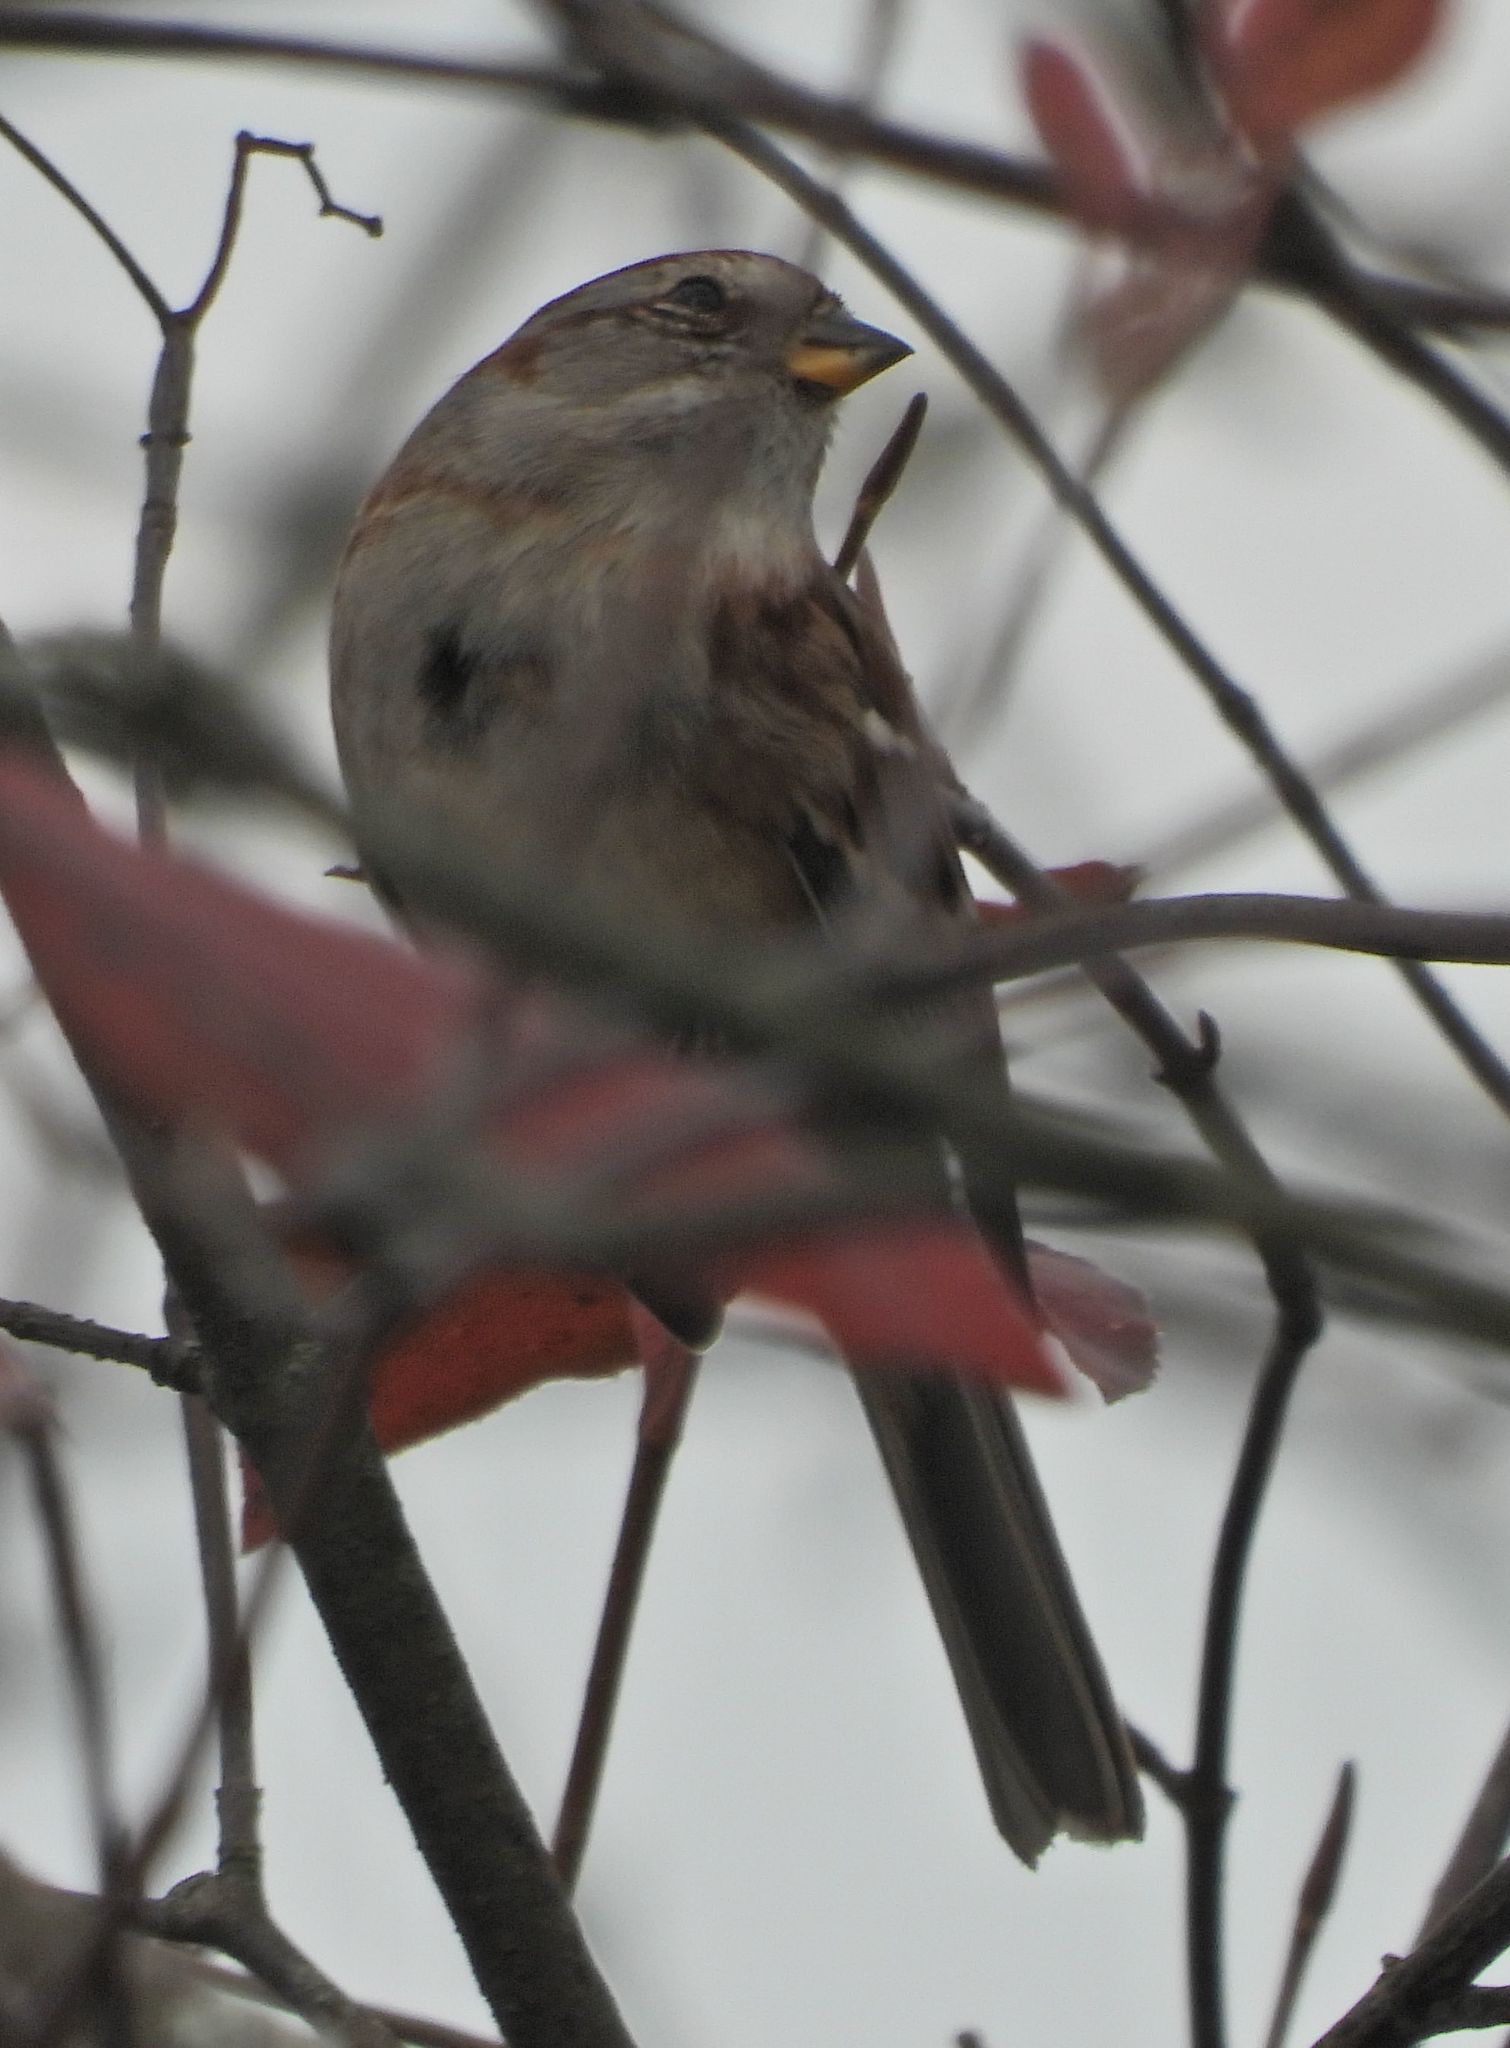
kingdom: Animalia
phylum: Chordata
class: Aves
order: Passeriformes
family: Passerellidae
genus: Spizelloides
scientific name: Spizelloides arborea
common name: American tree sparrow
